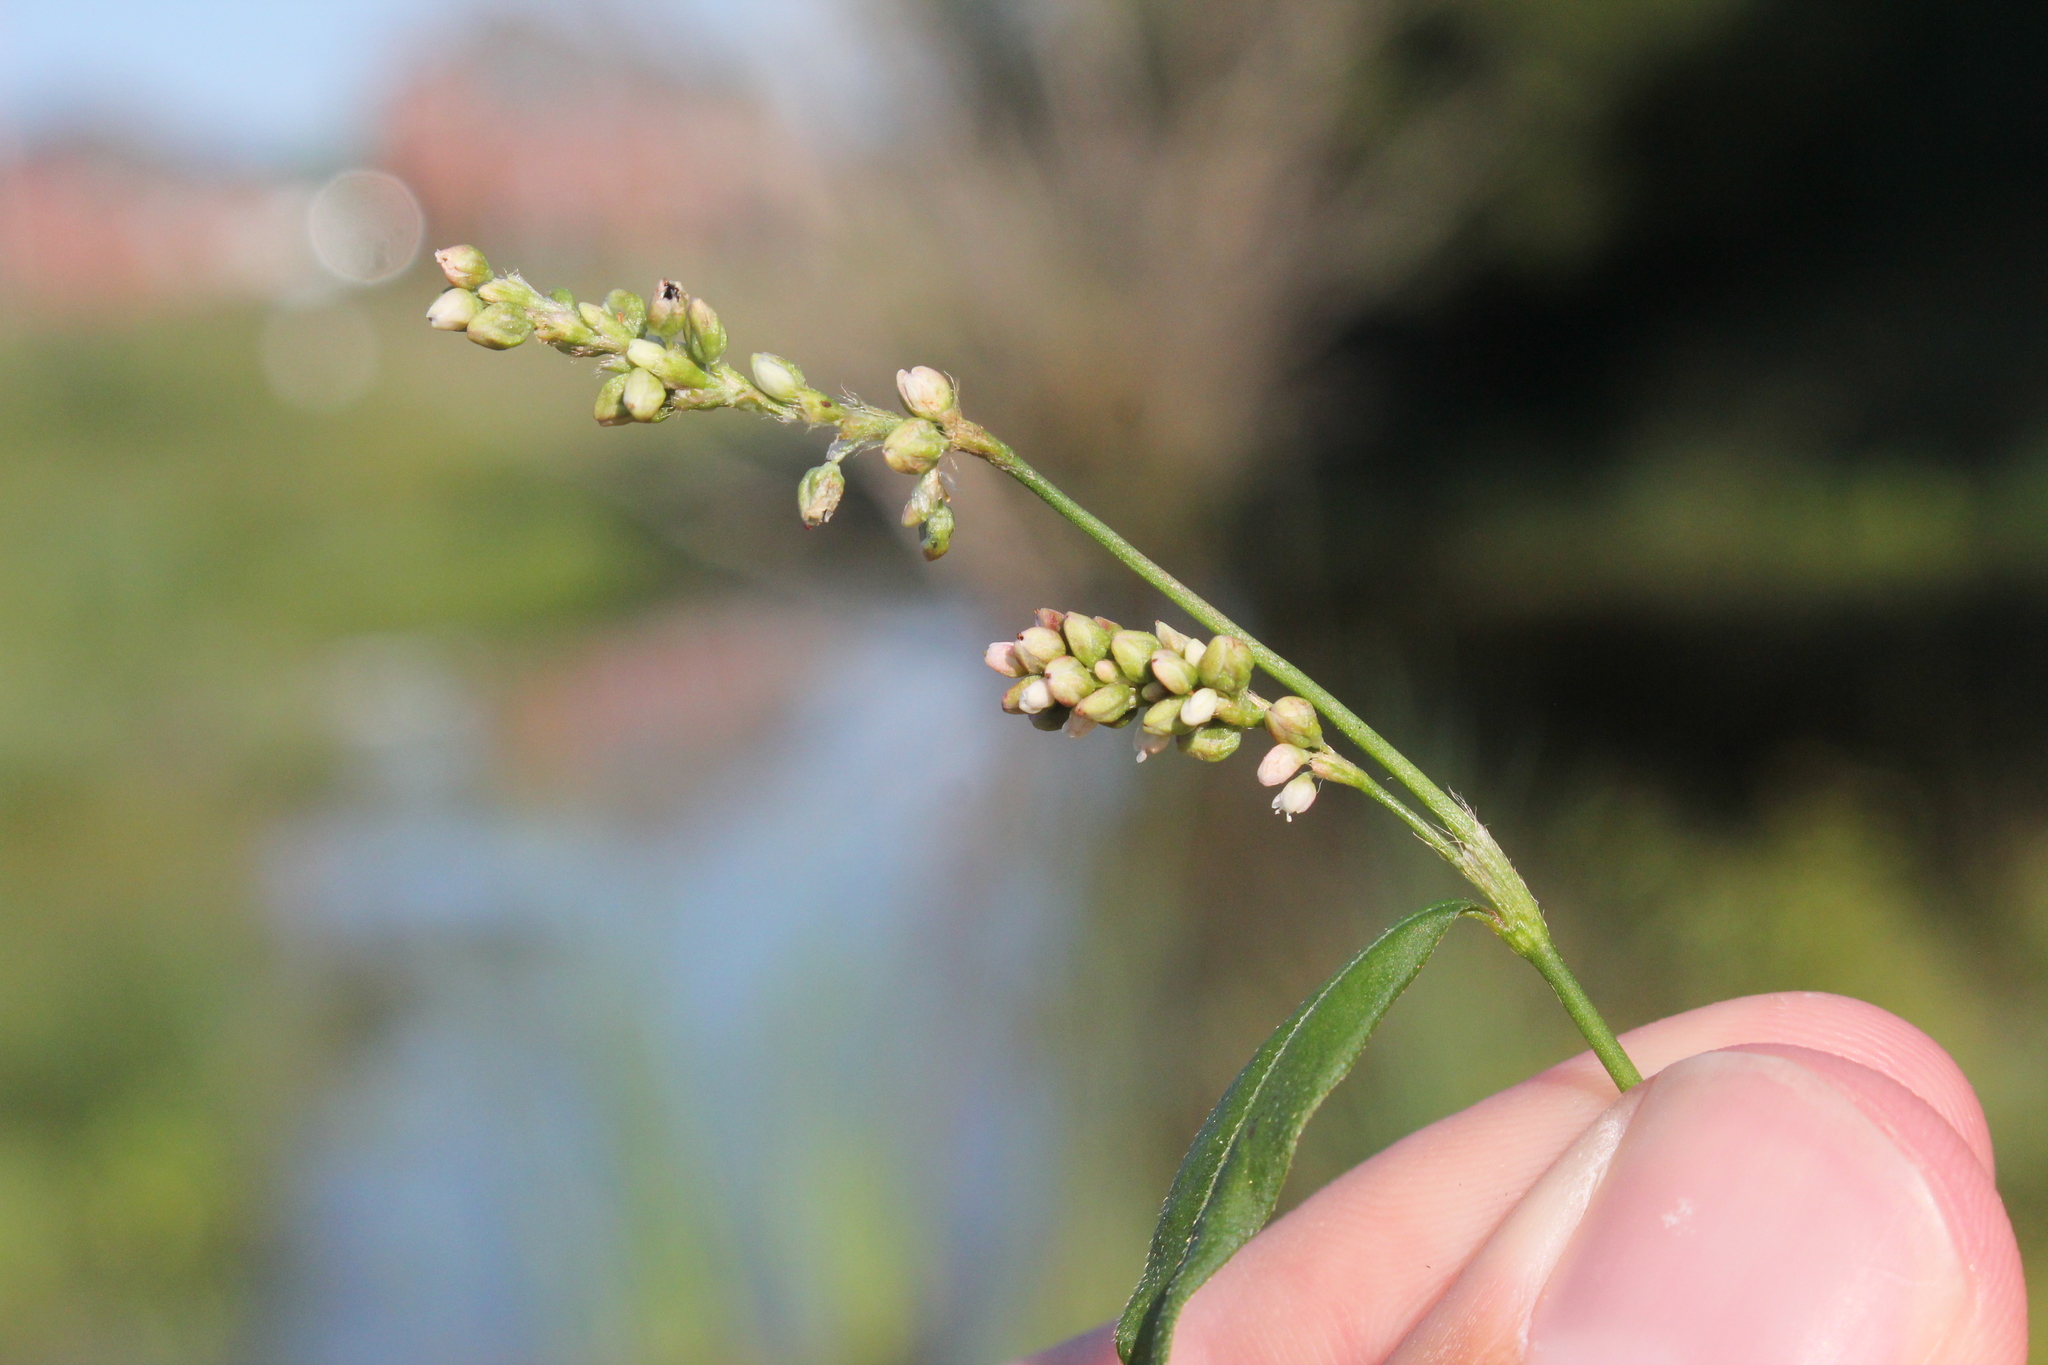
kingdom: Plantae
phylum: Tracheophyta
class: Magnoliopsida
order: Caryophyllales
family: Polygonaceae
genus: Persicaria
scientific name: Persicaria maculosa
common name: Redshank
